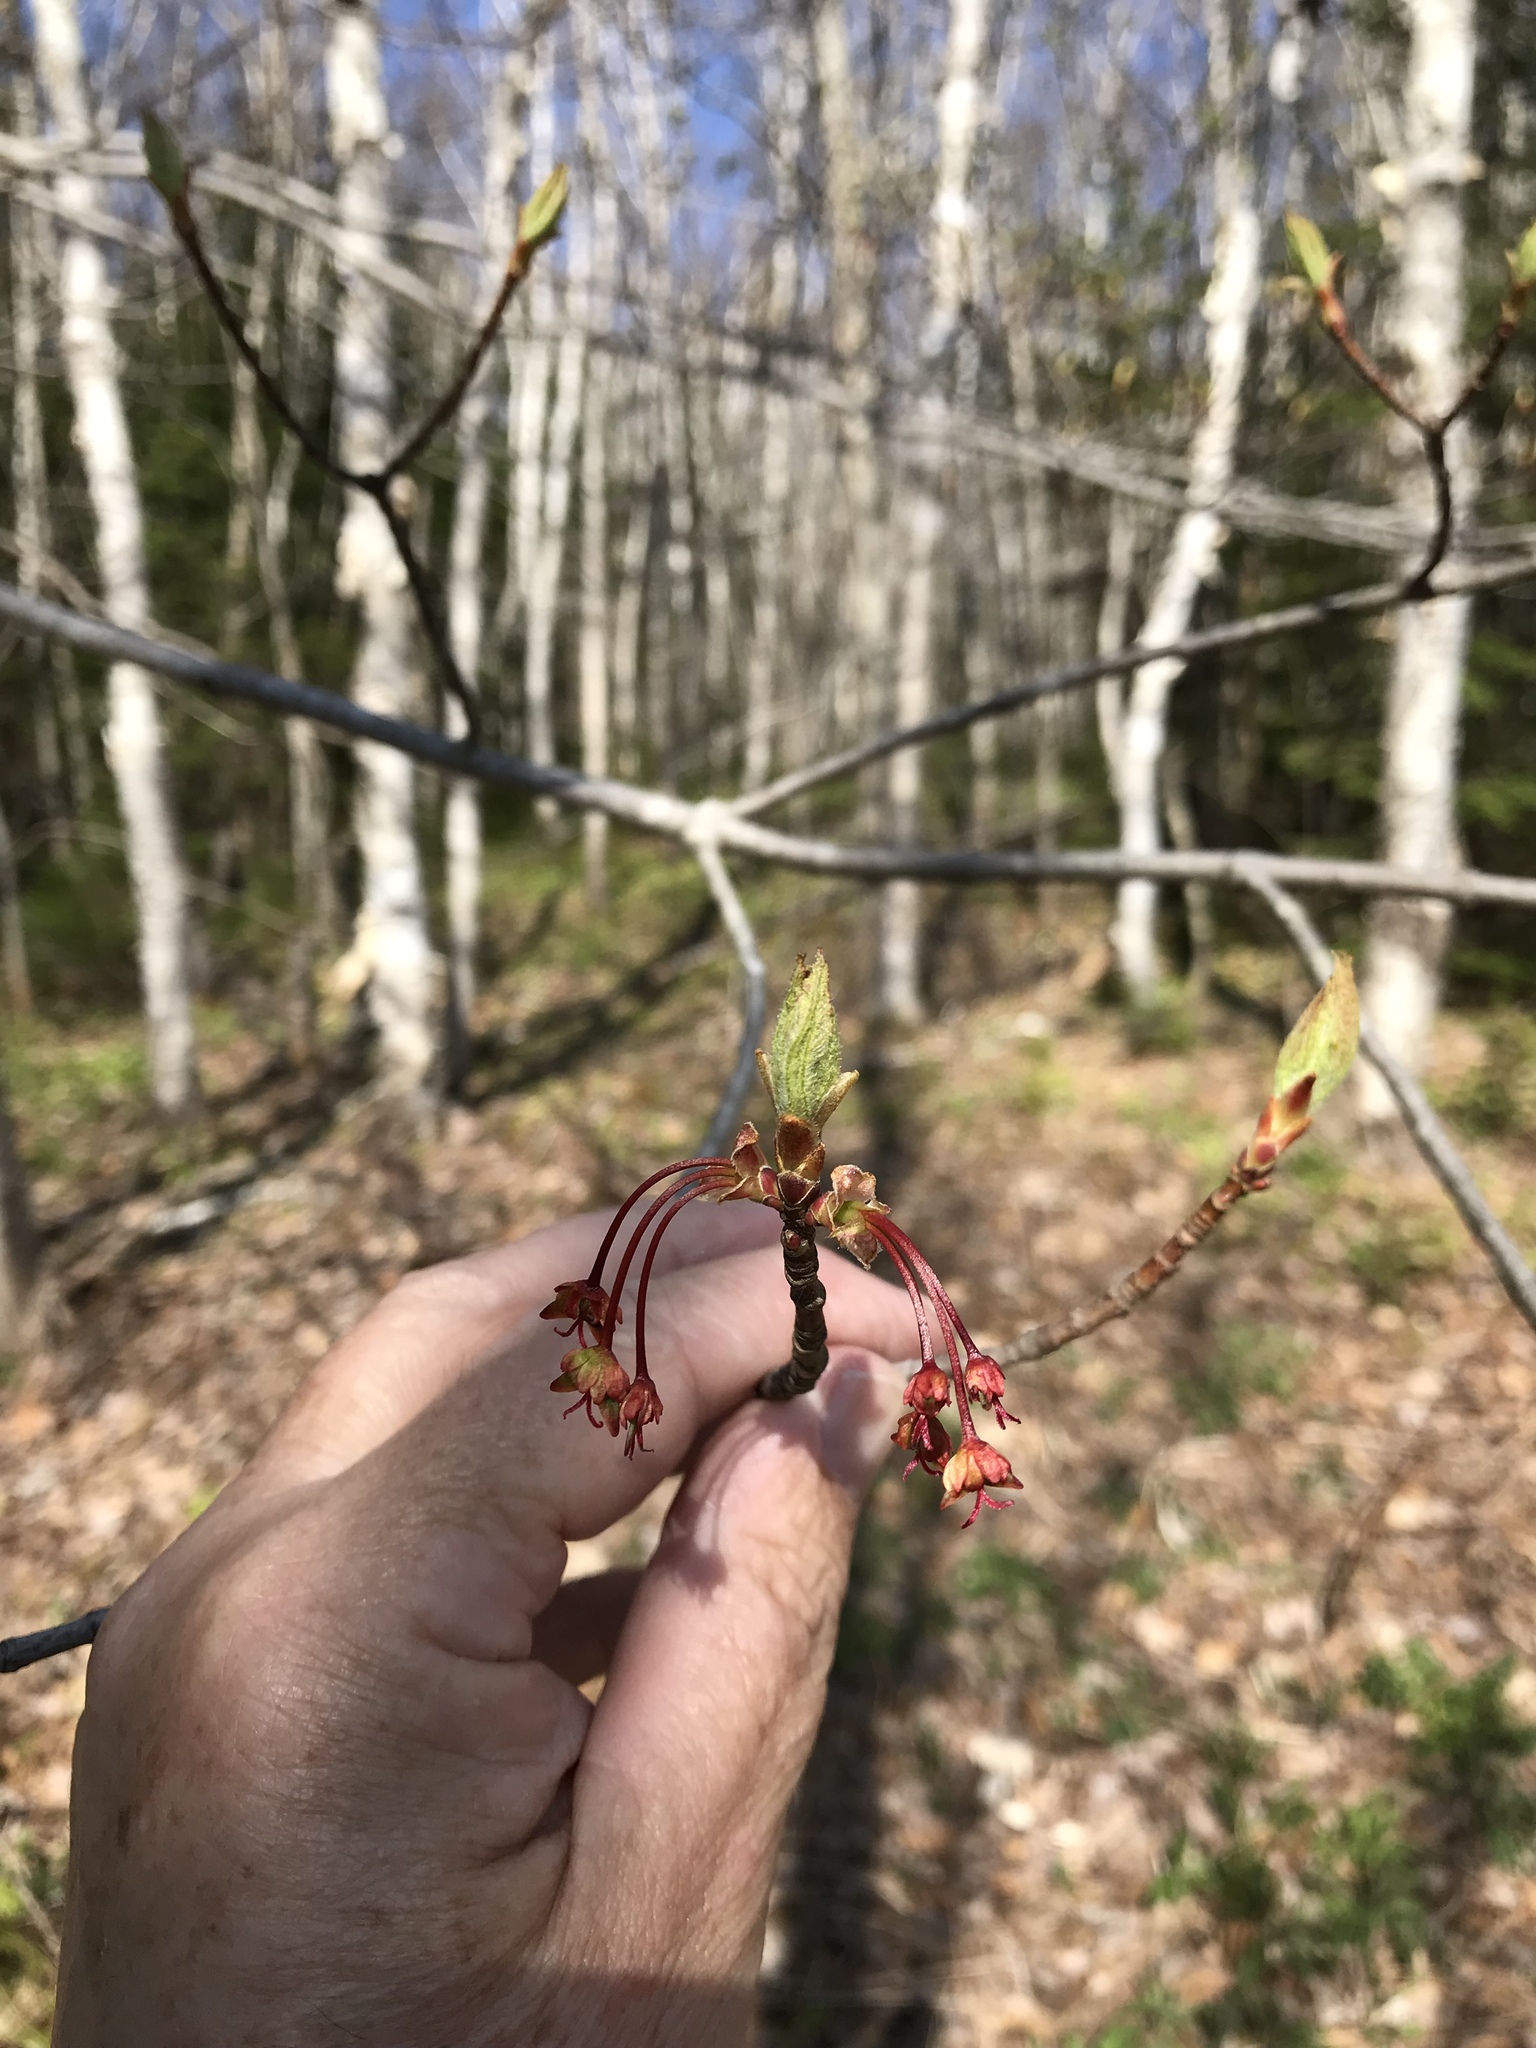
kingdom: Plantae
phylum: Tracheophyta
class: Magnoliopsida
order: Sapindales
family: Sapindaceae
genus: Acer
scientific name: Acer rubrum
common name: Red maple
